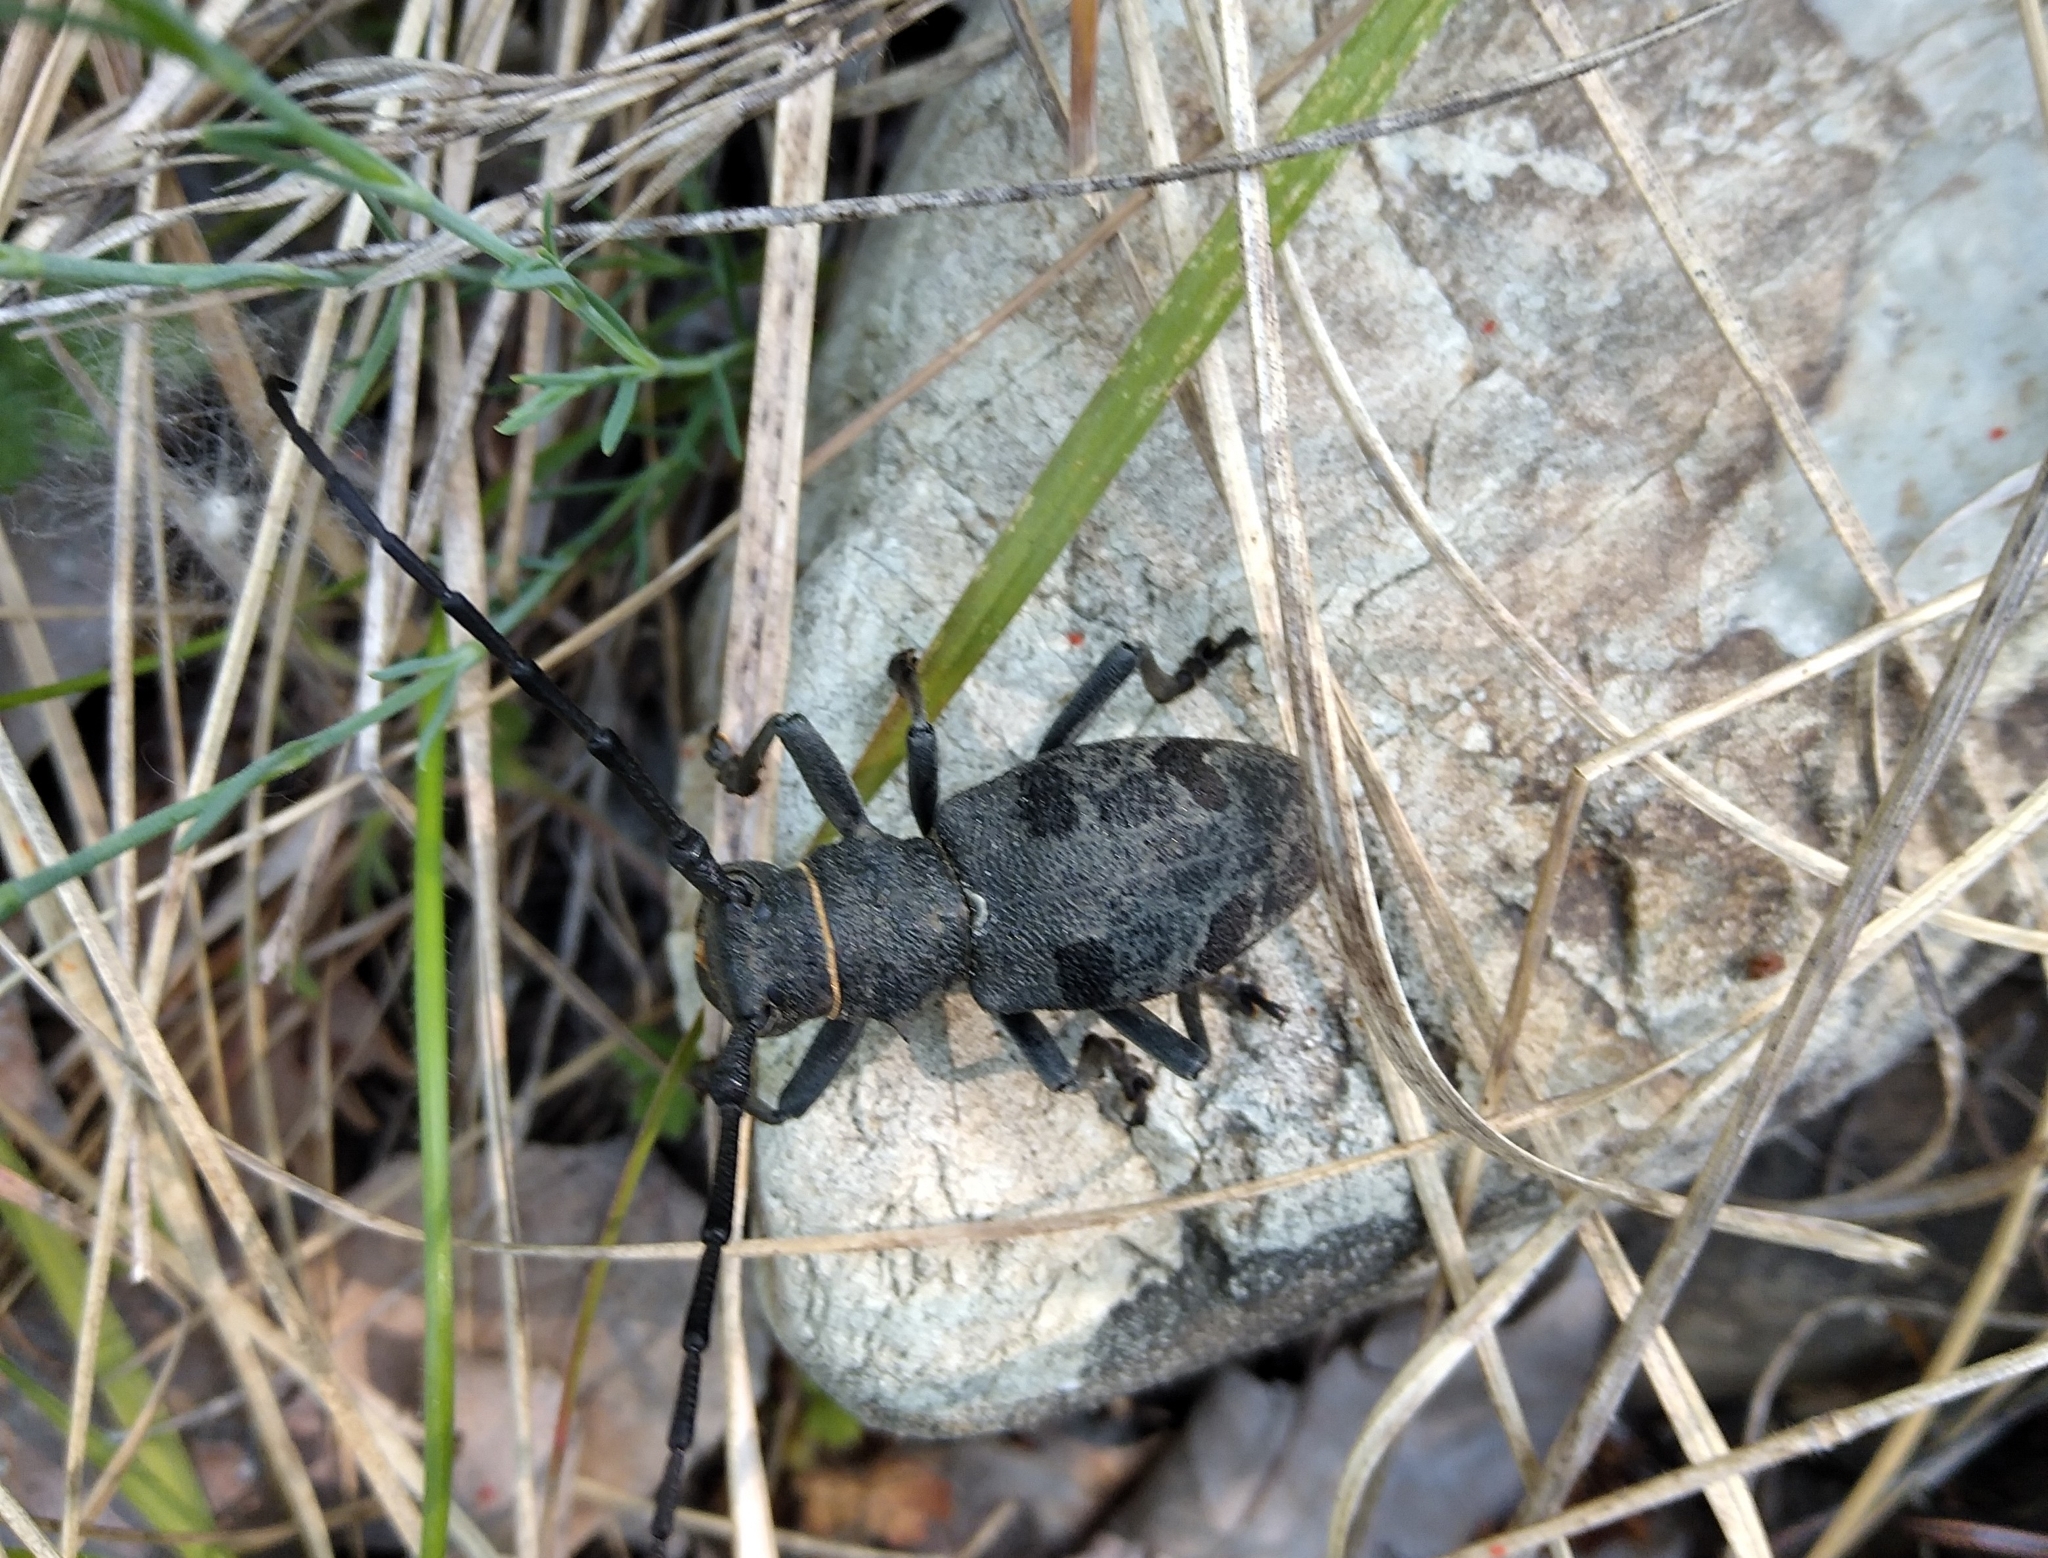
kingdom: Animalia
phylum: Arthropoda
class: Insecta
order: Coleoptera
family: Cerambycidae
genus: Morimus
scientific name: Morimus asper
